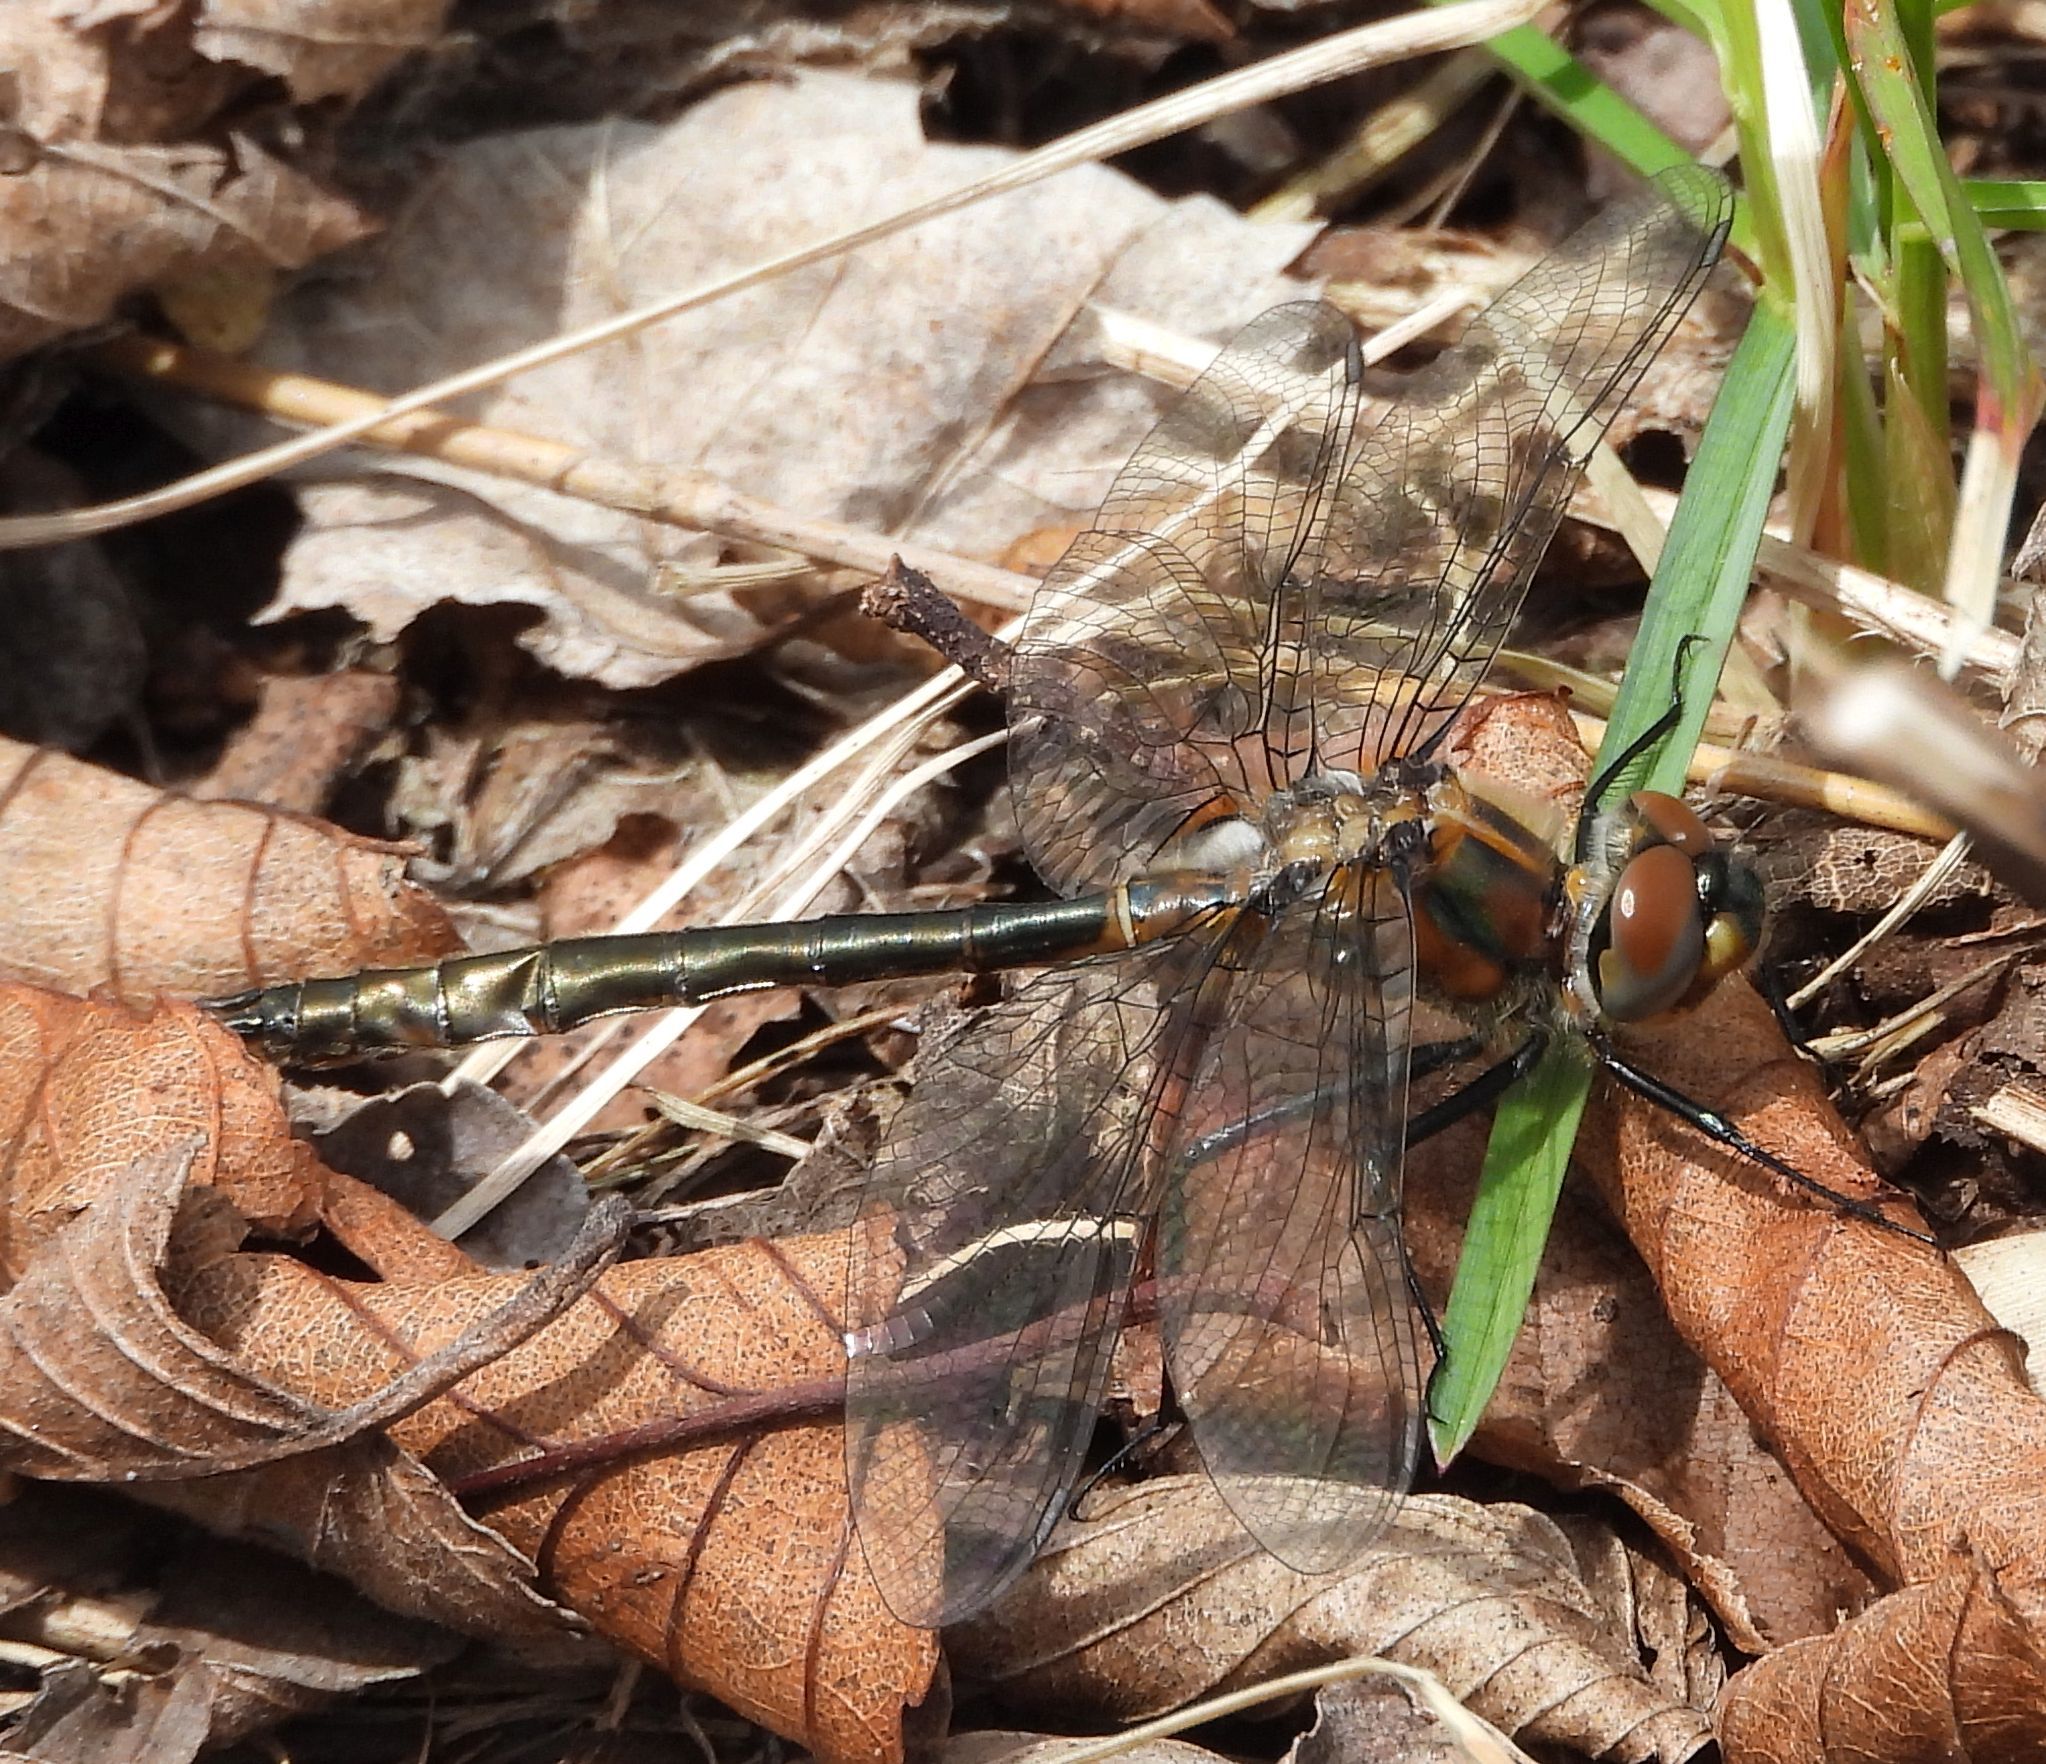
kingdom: Animalia
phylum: Arthropoda
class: Insecta
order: Odonata
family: Corduliidae
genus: Cordulia
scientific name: Cordulia shurtleffii
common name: American emerald
